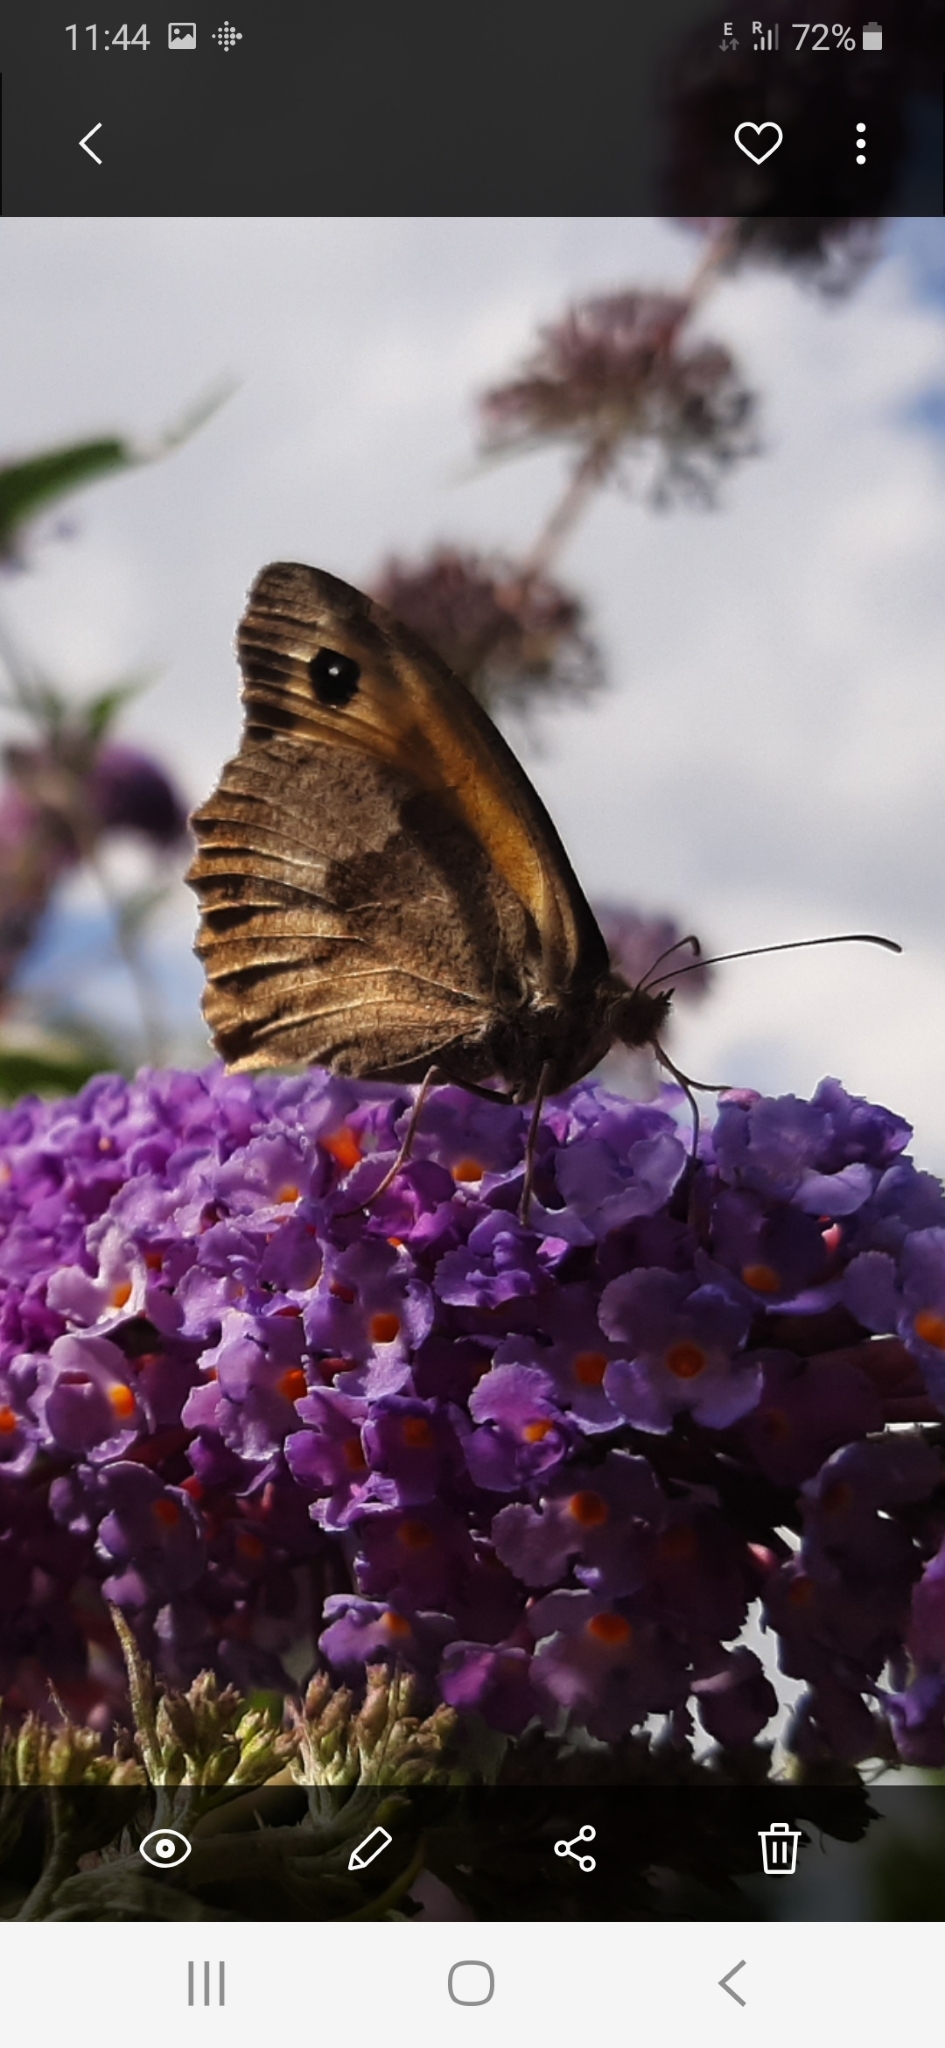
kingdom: Animalia
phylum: Arthropoda
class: Insecta
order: Lepidoptera
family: Nymphalidae
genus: Maniola
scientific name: Maniola jurtina
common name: Meadow brown
